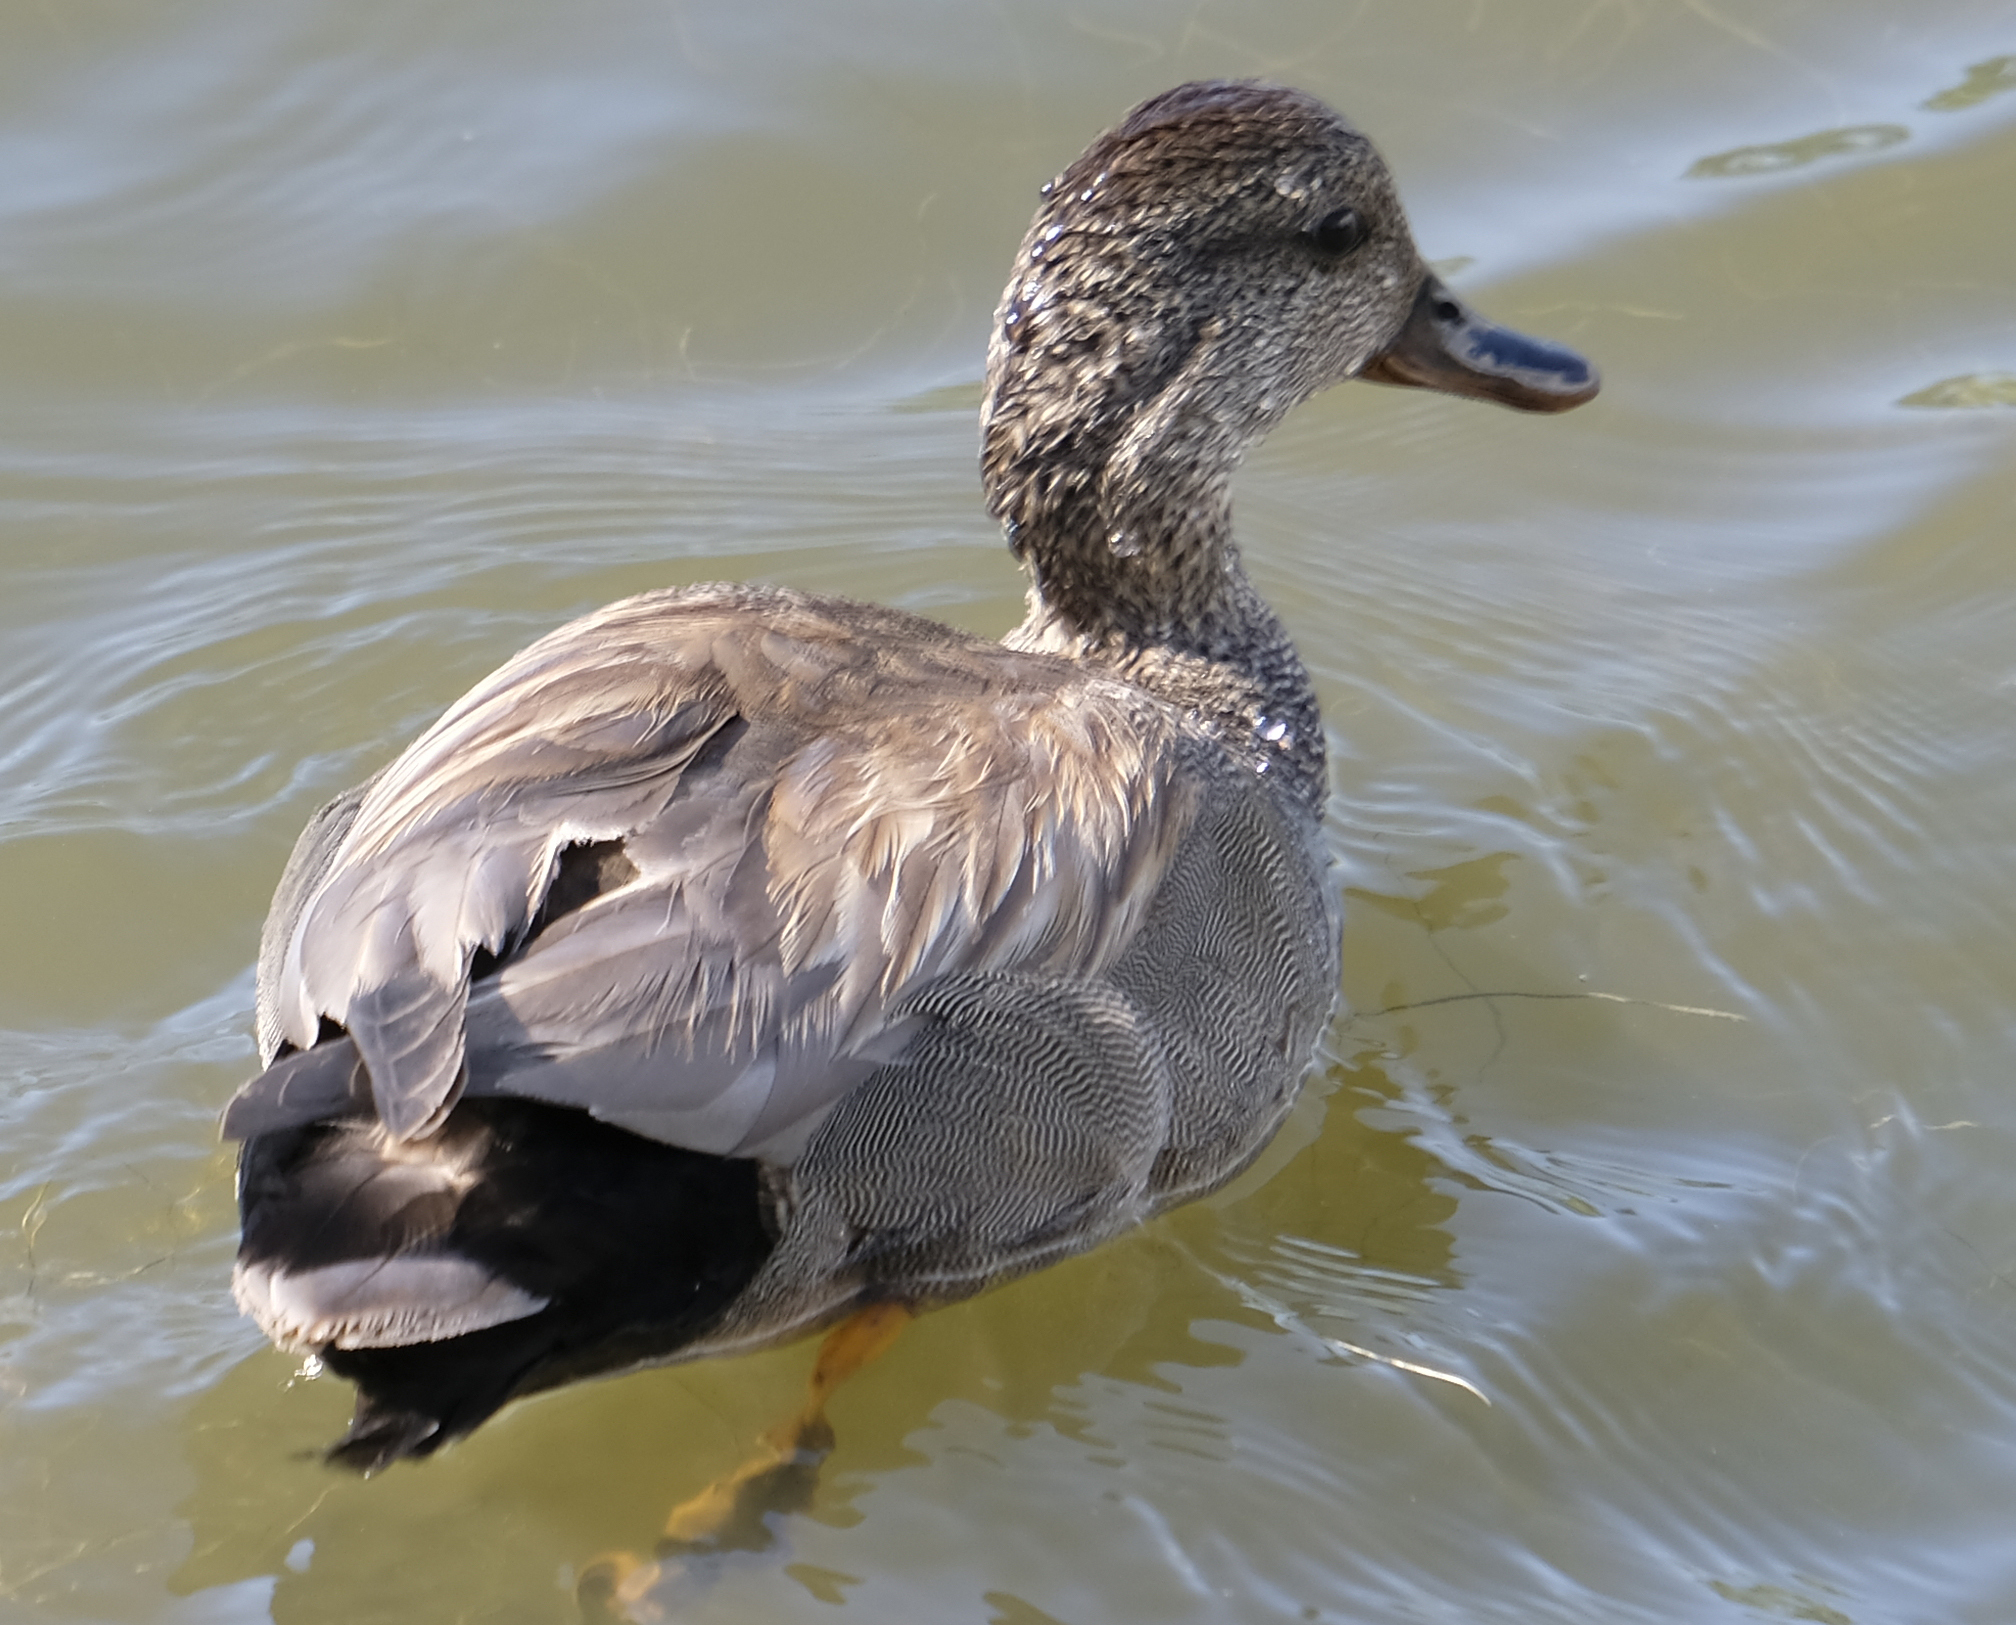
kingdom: Animalia
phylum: Chordata
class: Aves
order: Anseriformes
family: Anatidae
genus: Mareca
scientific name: Mareca strepera
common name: Gadwall
